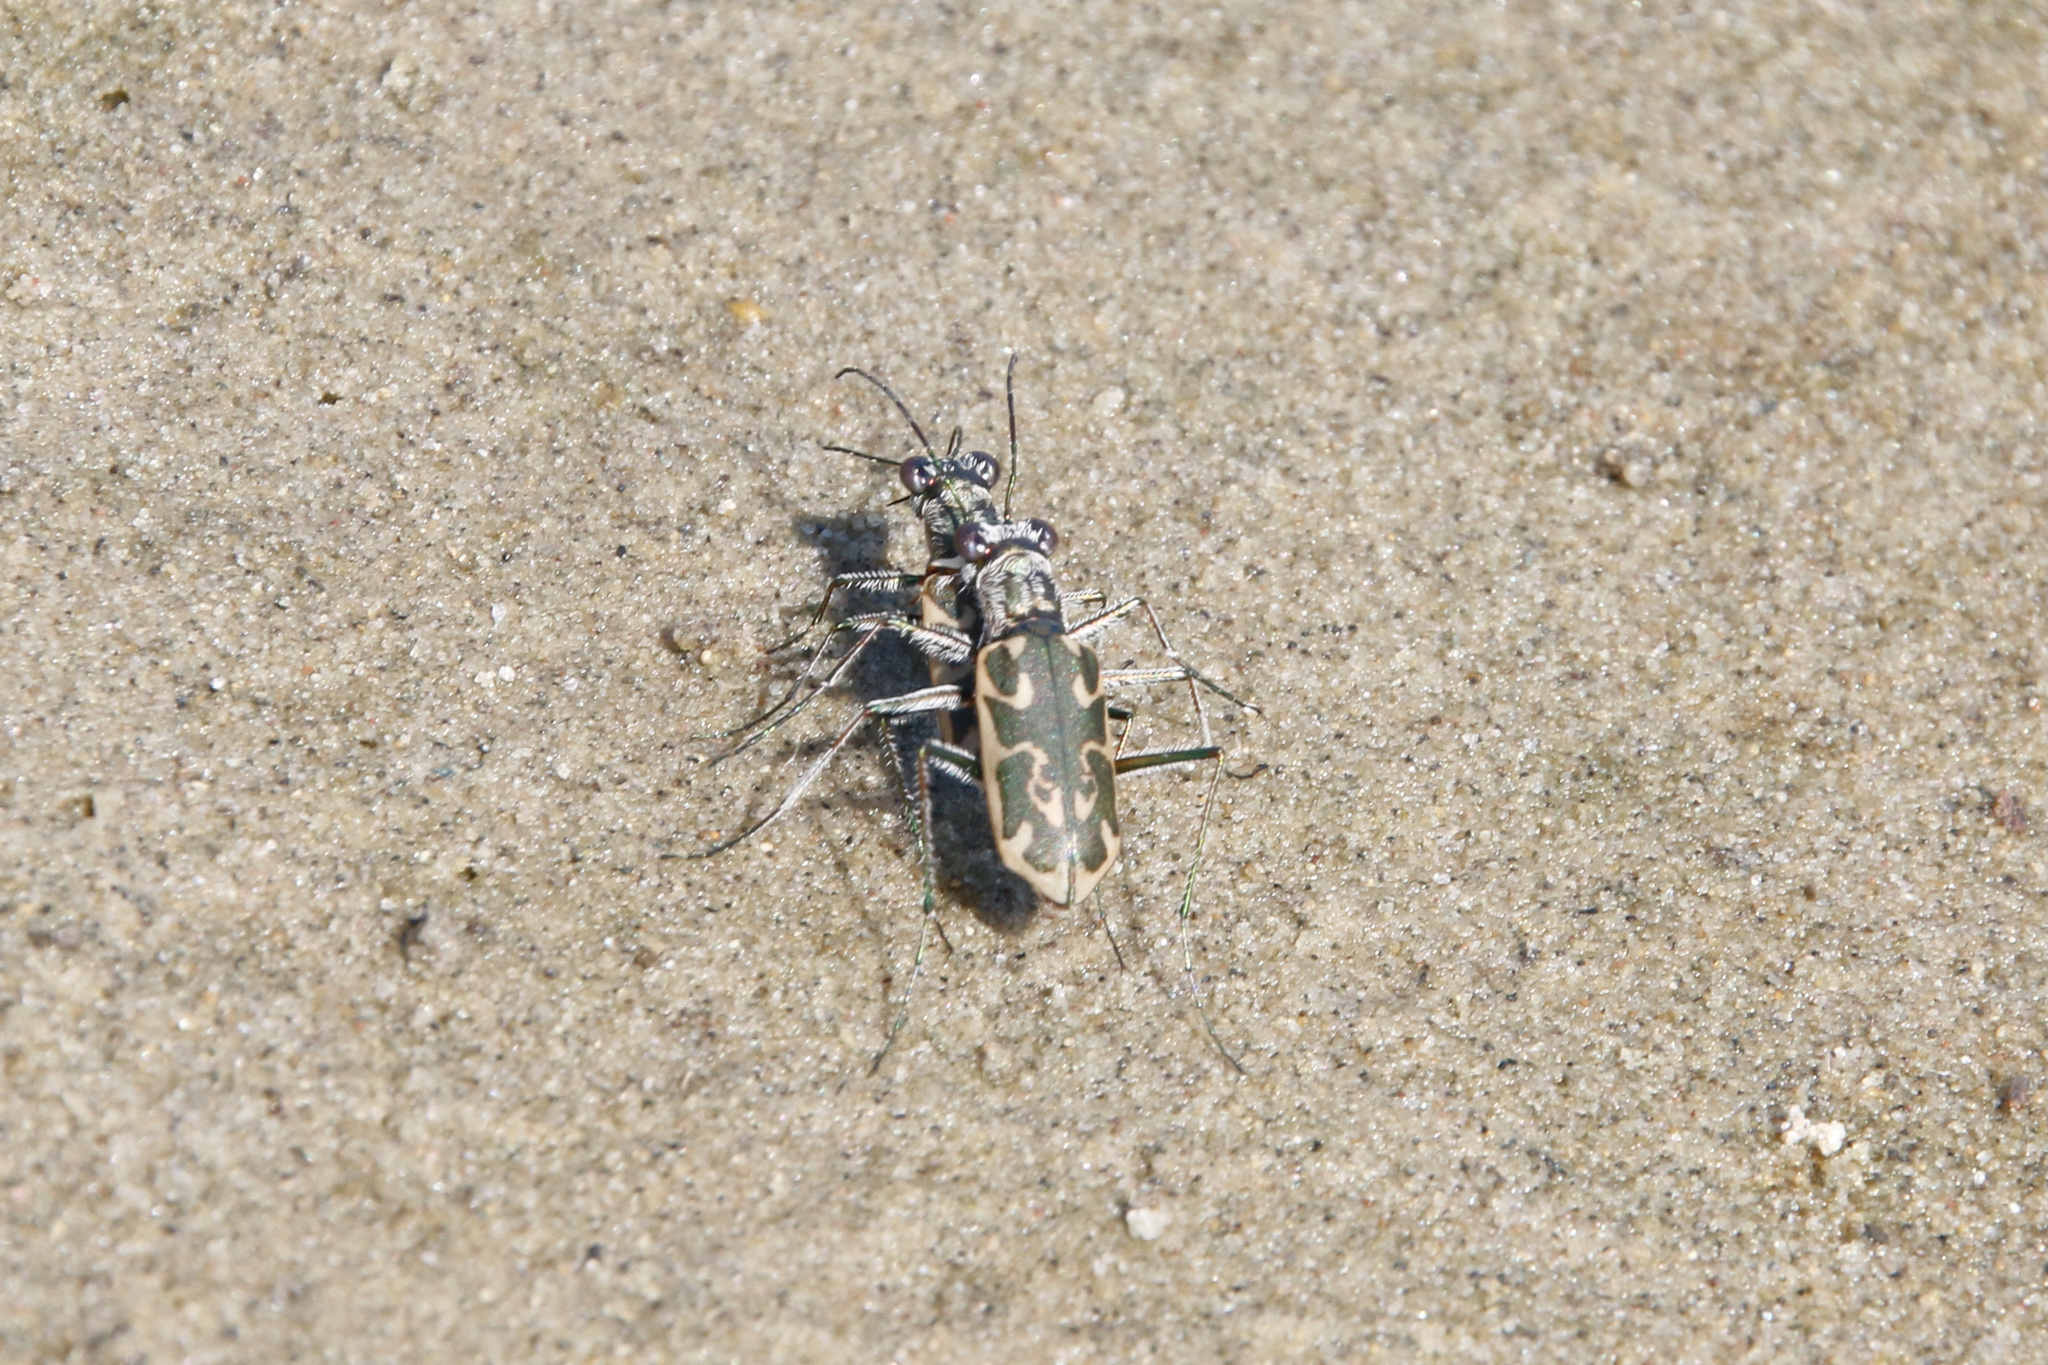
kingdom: Animalia
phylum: Arthropoda
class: Insecta
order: Coleoptera
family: Carabidae
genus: Ellipsoptera
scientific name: Ellipsoptera macra
